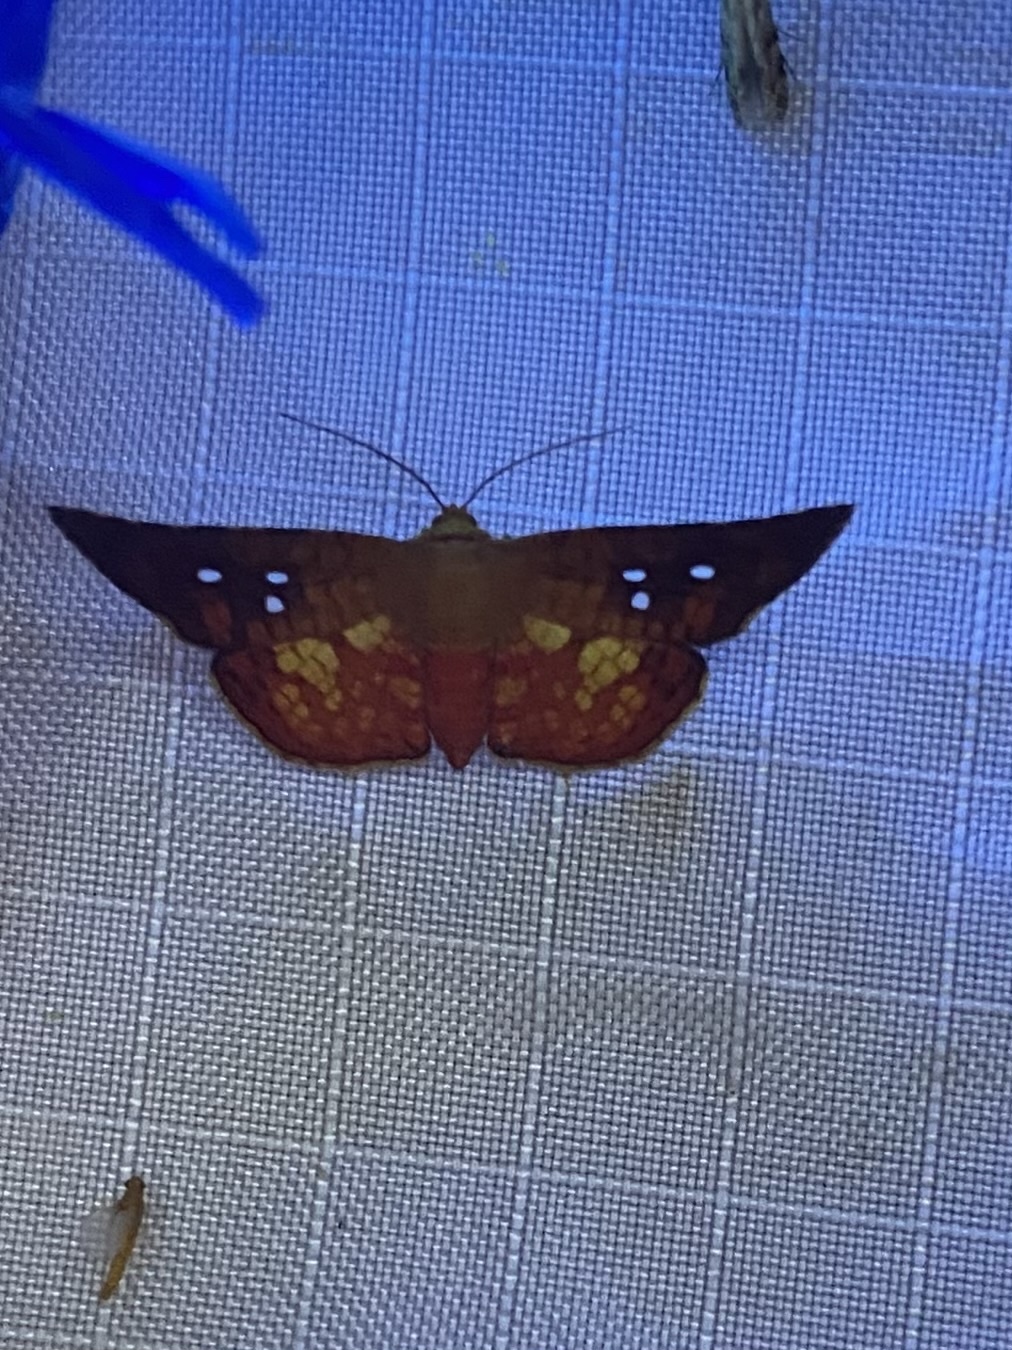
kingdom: Animalia
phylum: Arthropoda
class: Insecta
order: Lepidoptera
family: Thyrididae
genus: Mathoris
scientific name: Mathoris vocata
